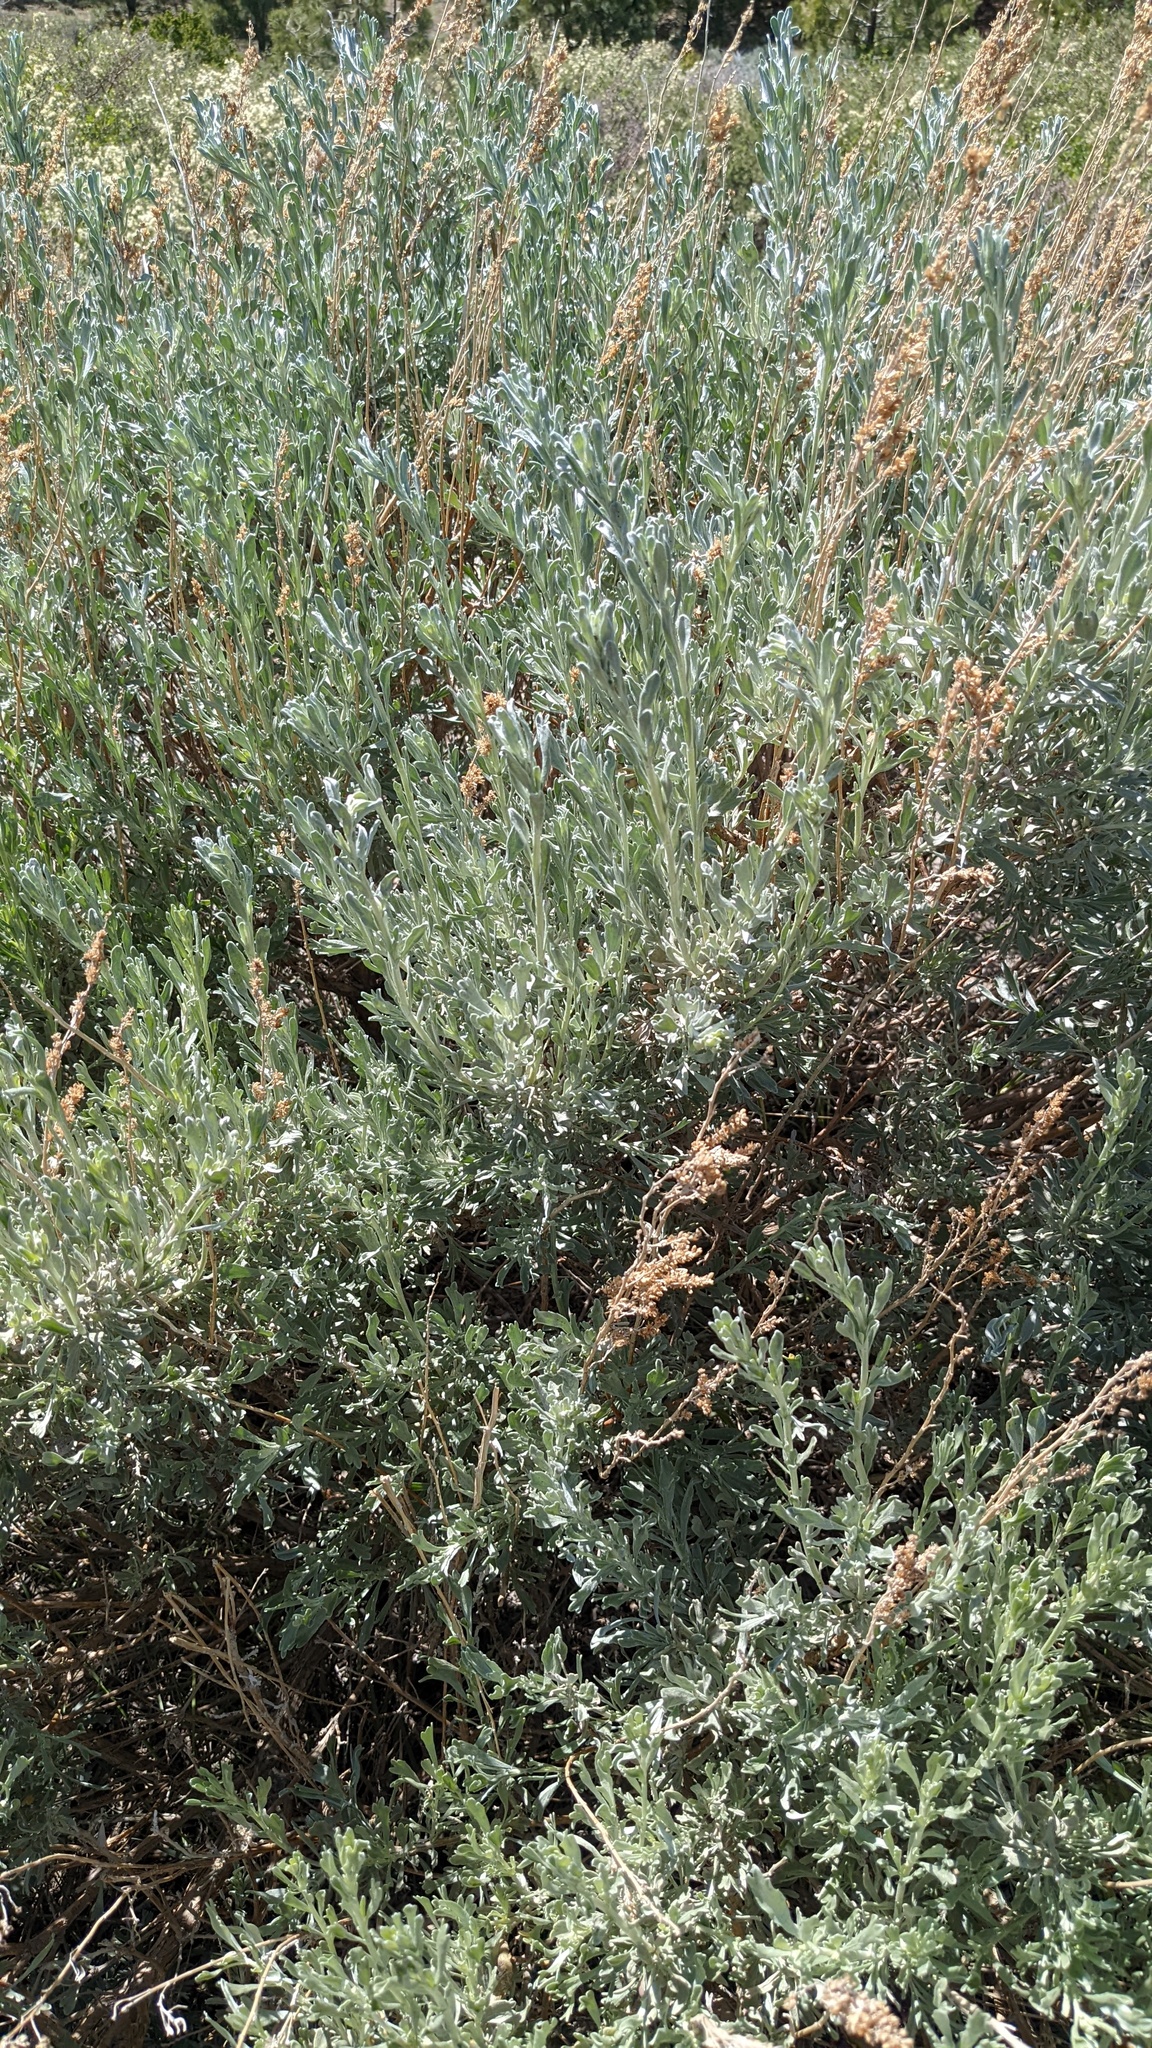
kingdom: Plantae
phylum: Tracheophyta
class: Magnoliopsida
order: Asterales
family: Asteraceae
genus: Artemisia
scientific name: Artemisia tridentata
